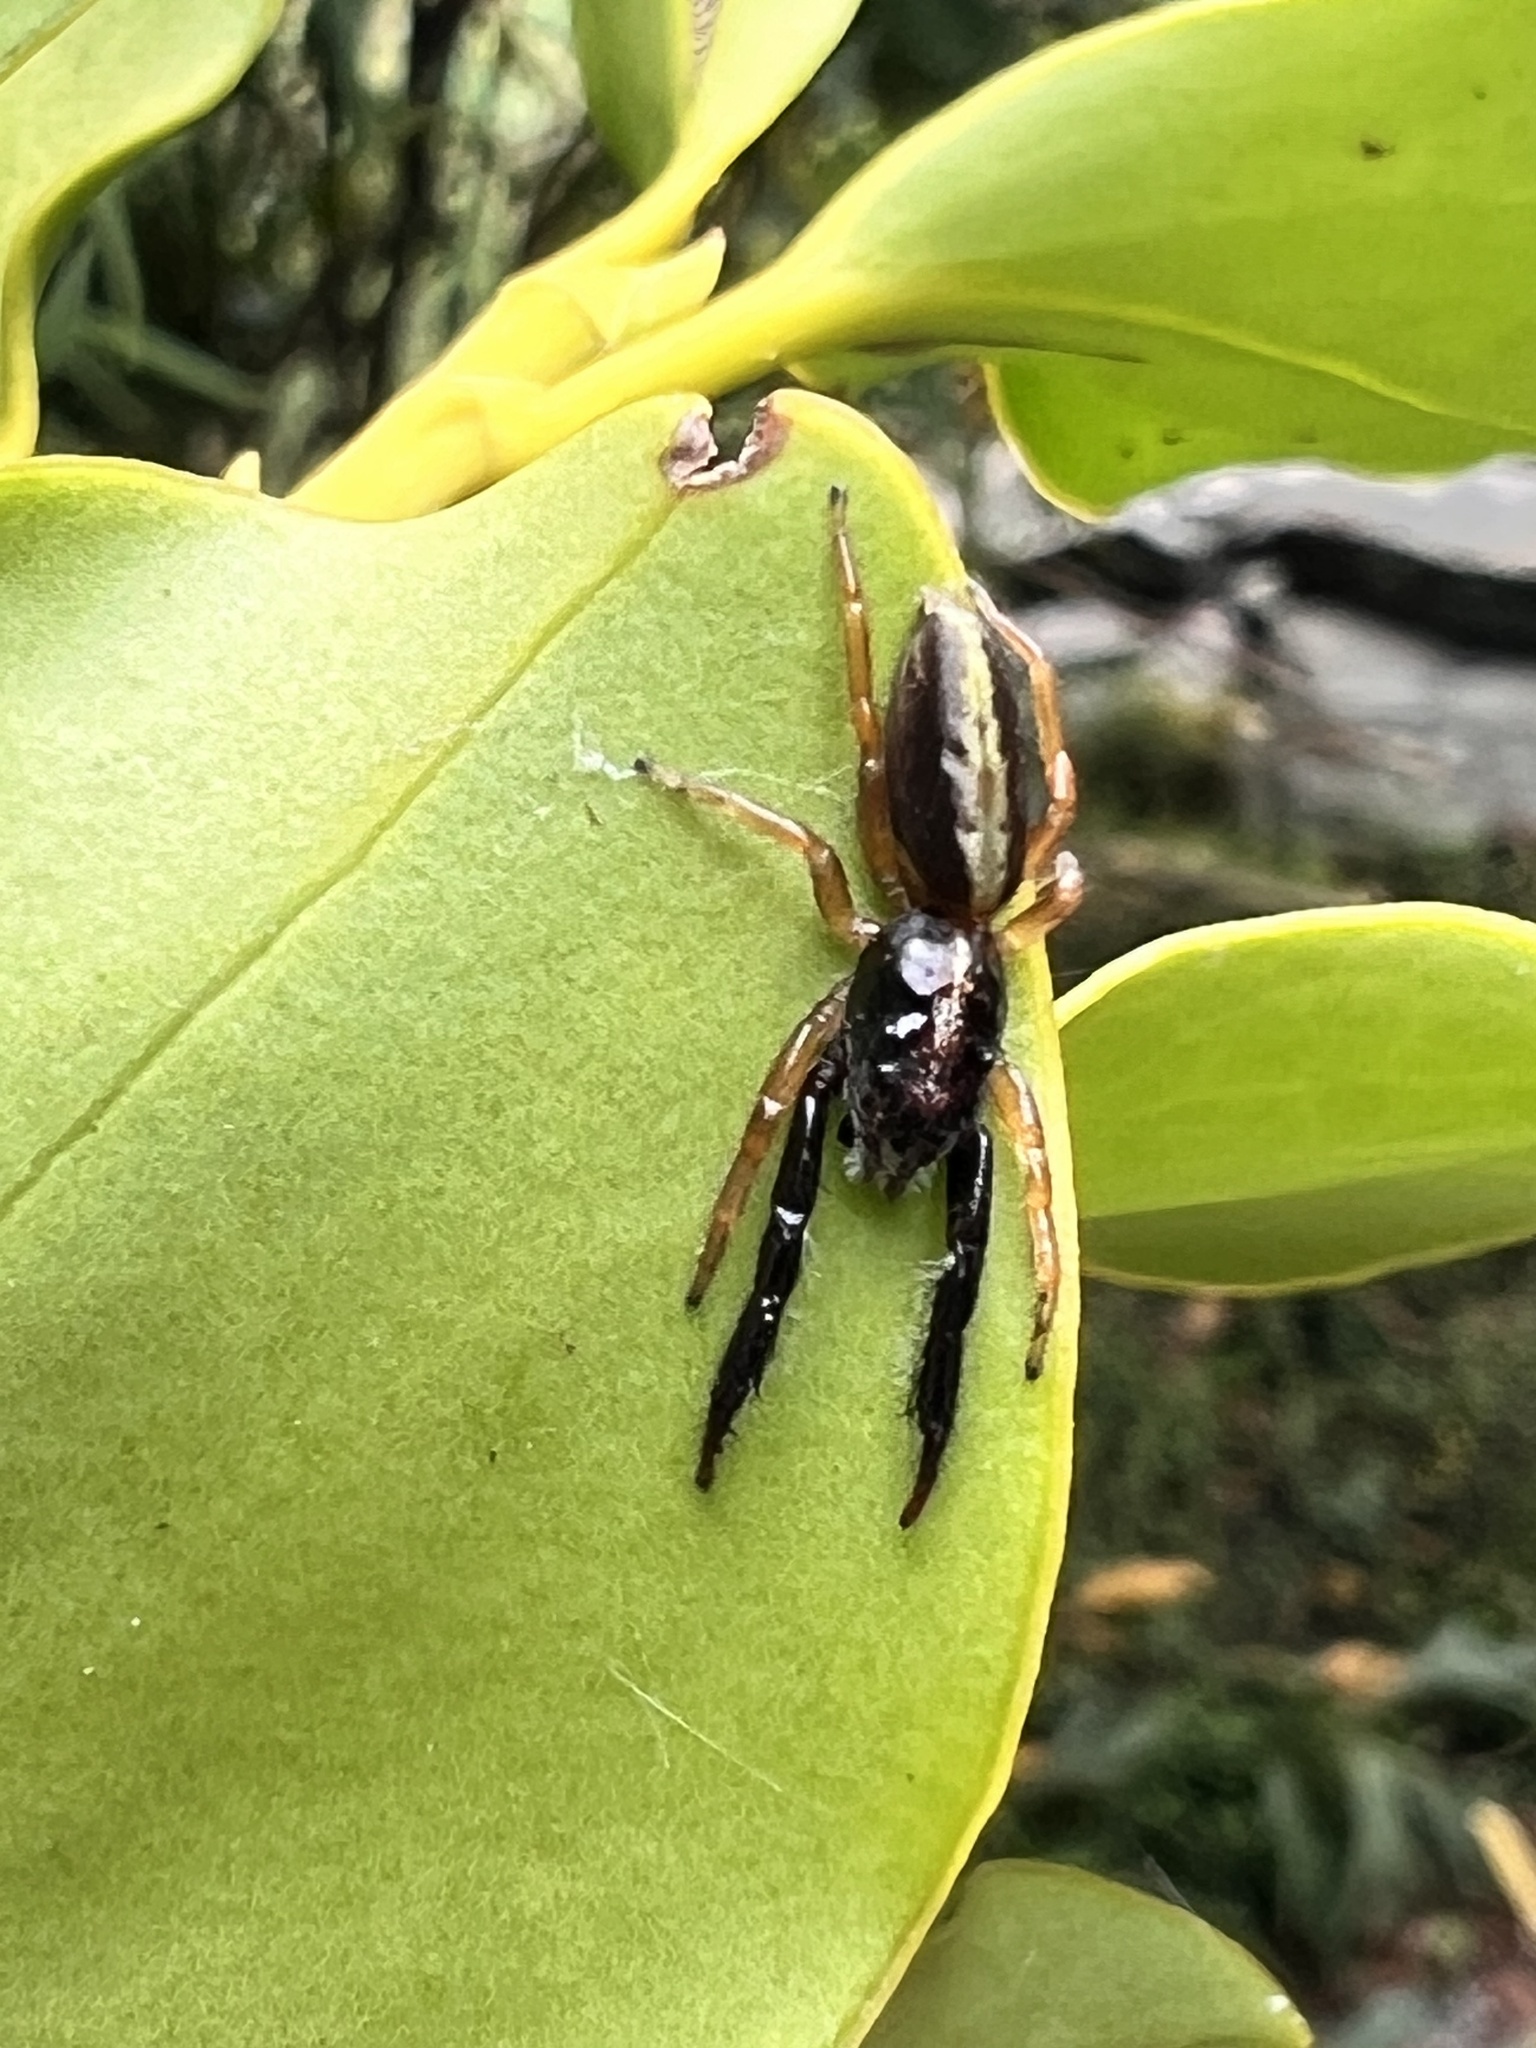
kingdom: Animalia
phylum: Arthropoda
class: Arachnida
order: Araneae
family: Salticidae
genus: Trite
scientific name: Trite planiceps
